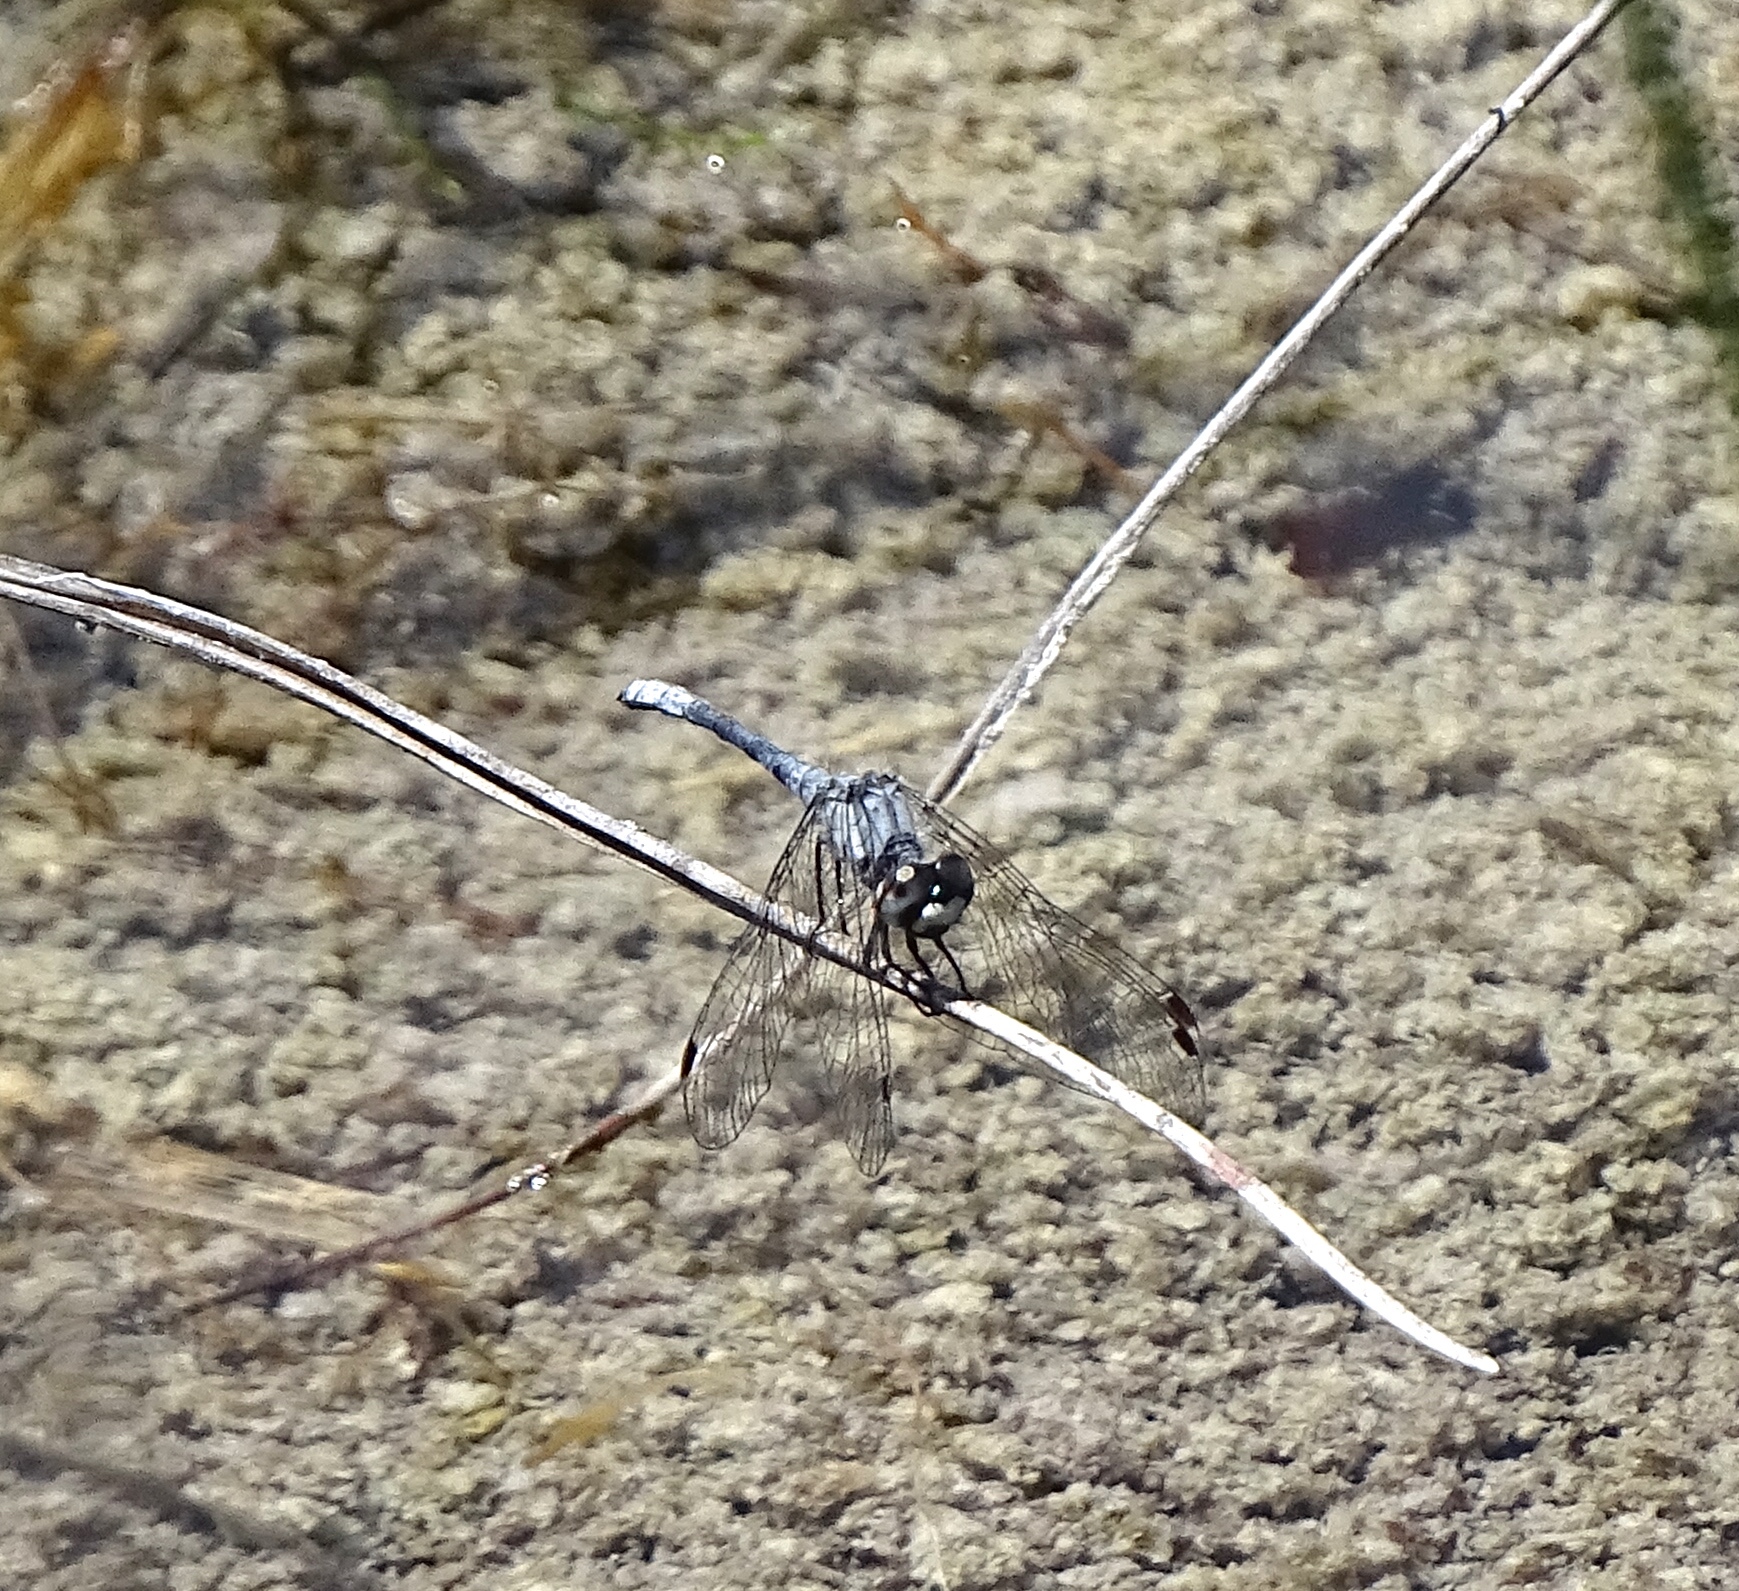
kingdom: Animalia
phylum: Arthropoda
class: Insecta
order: Odonata
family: Libellulidae
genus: Nannothemis
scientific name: Nannothemis bella
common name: Elfin skimmer
